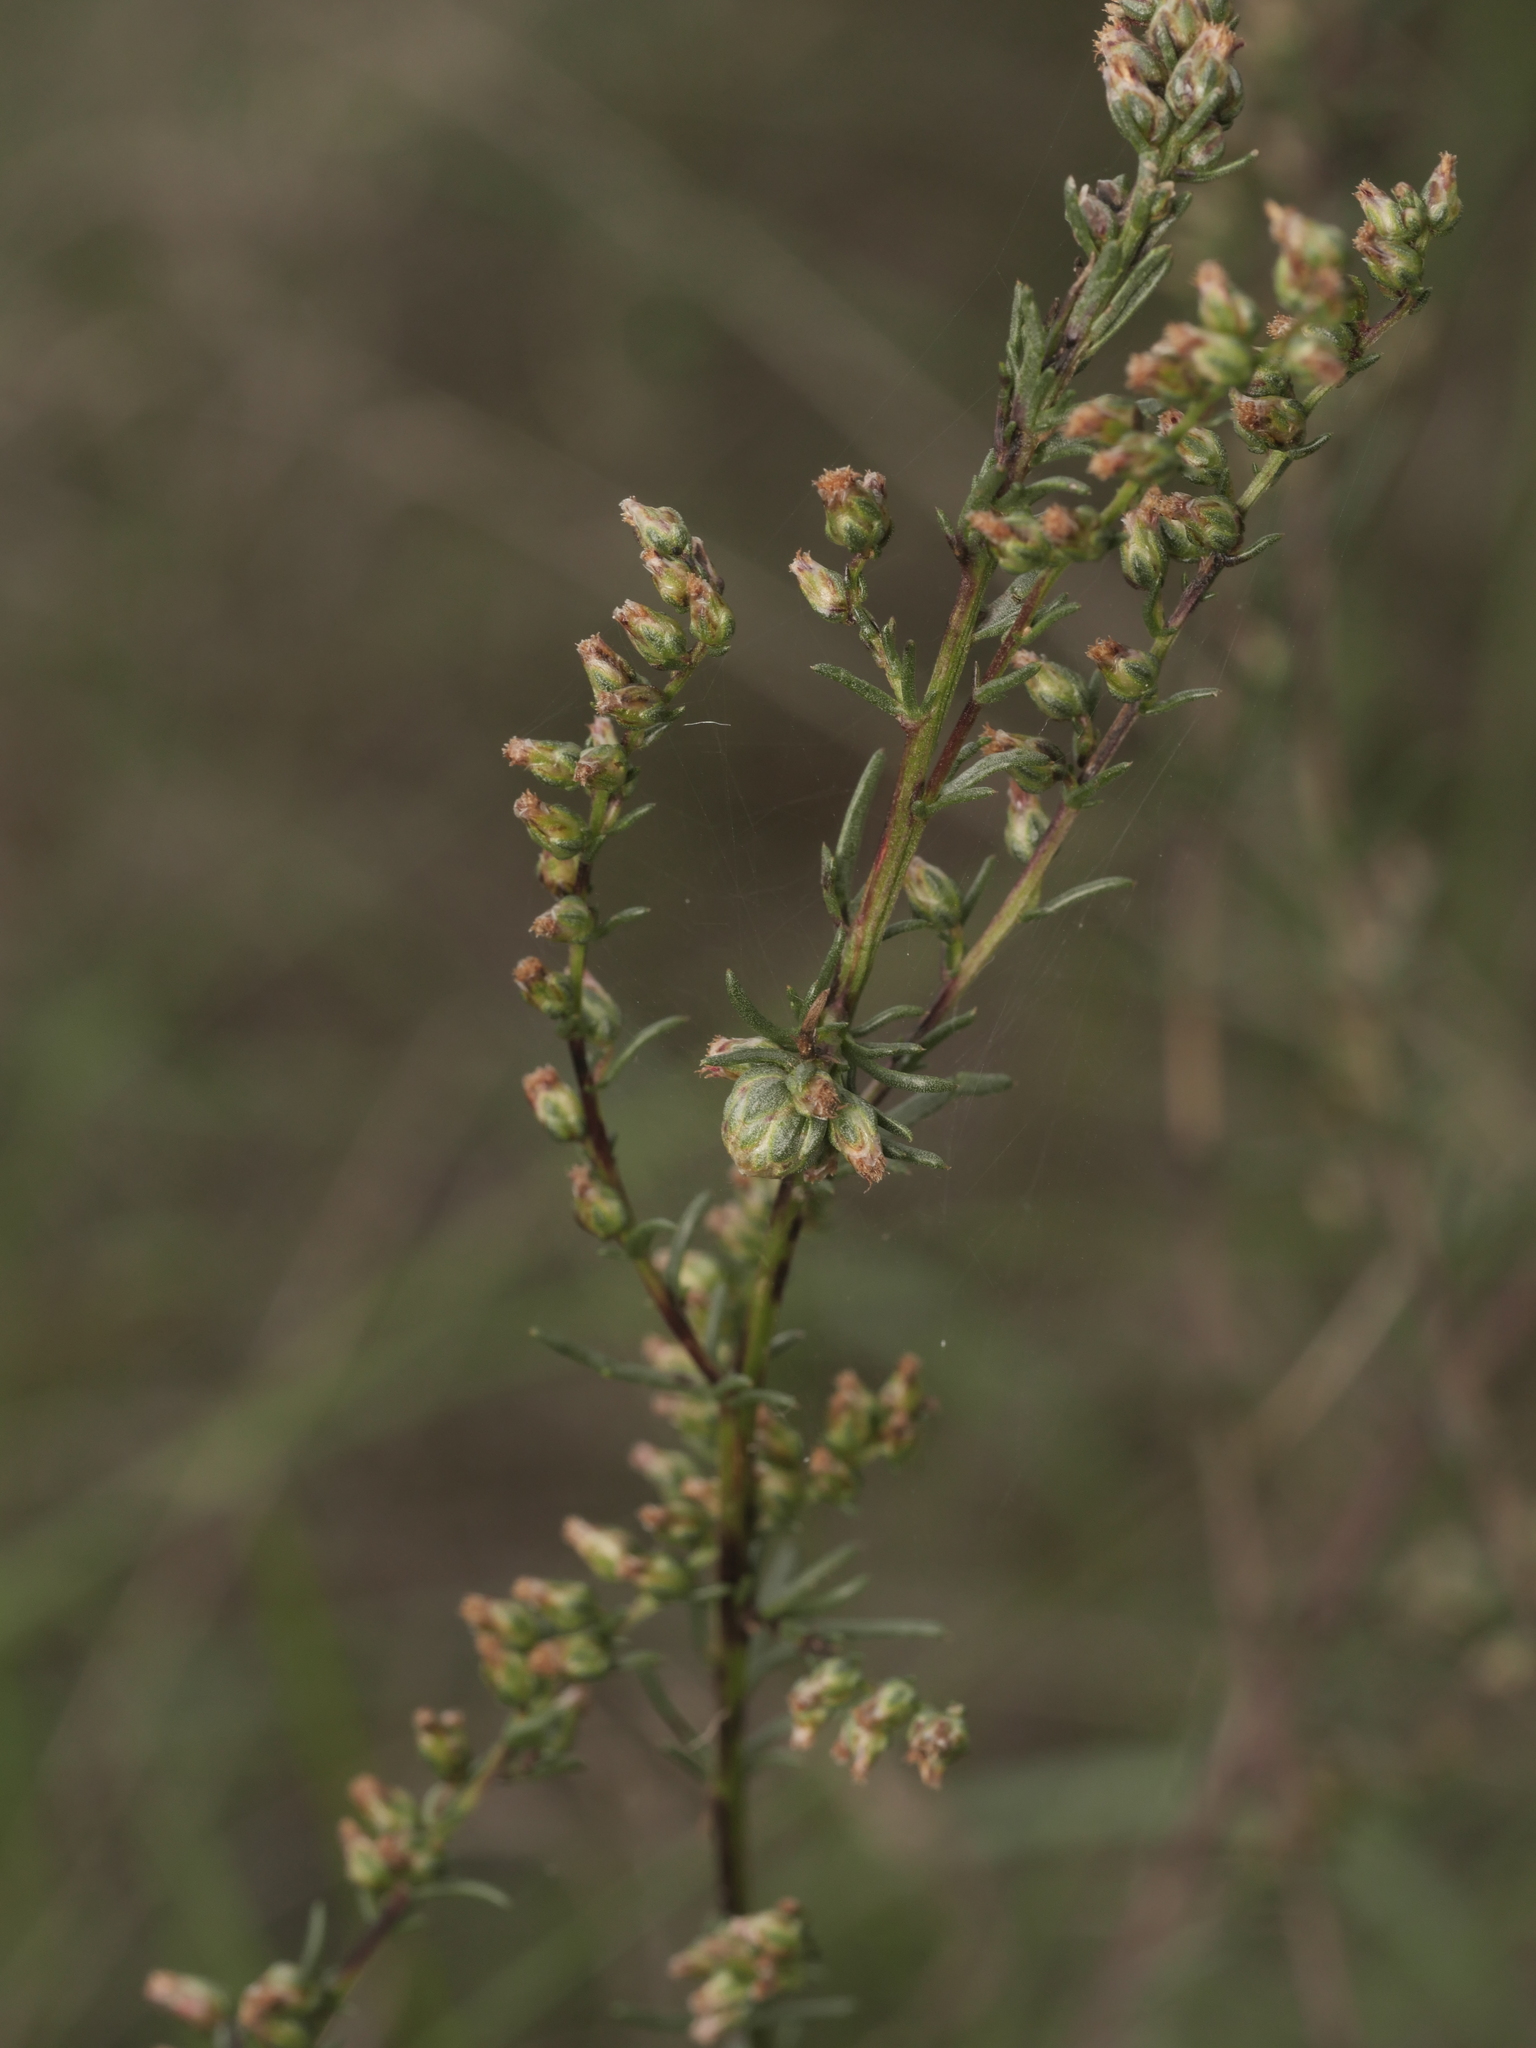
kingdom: Plantae
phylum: Tracheophyta
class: Magnoliopsida
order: Asterales
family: Asteraceae
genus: Artemisia
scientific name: Artemisia campestris
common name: Field wormwood
